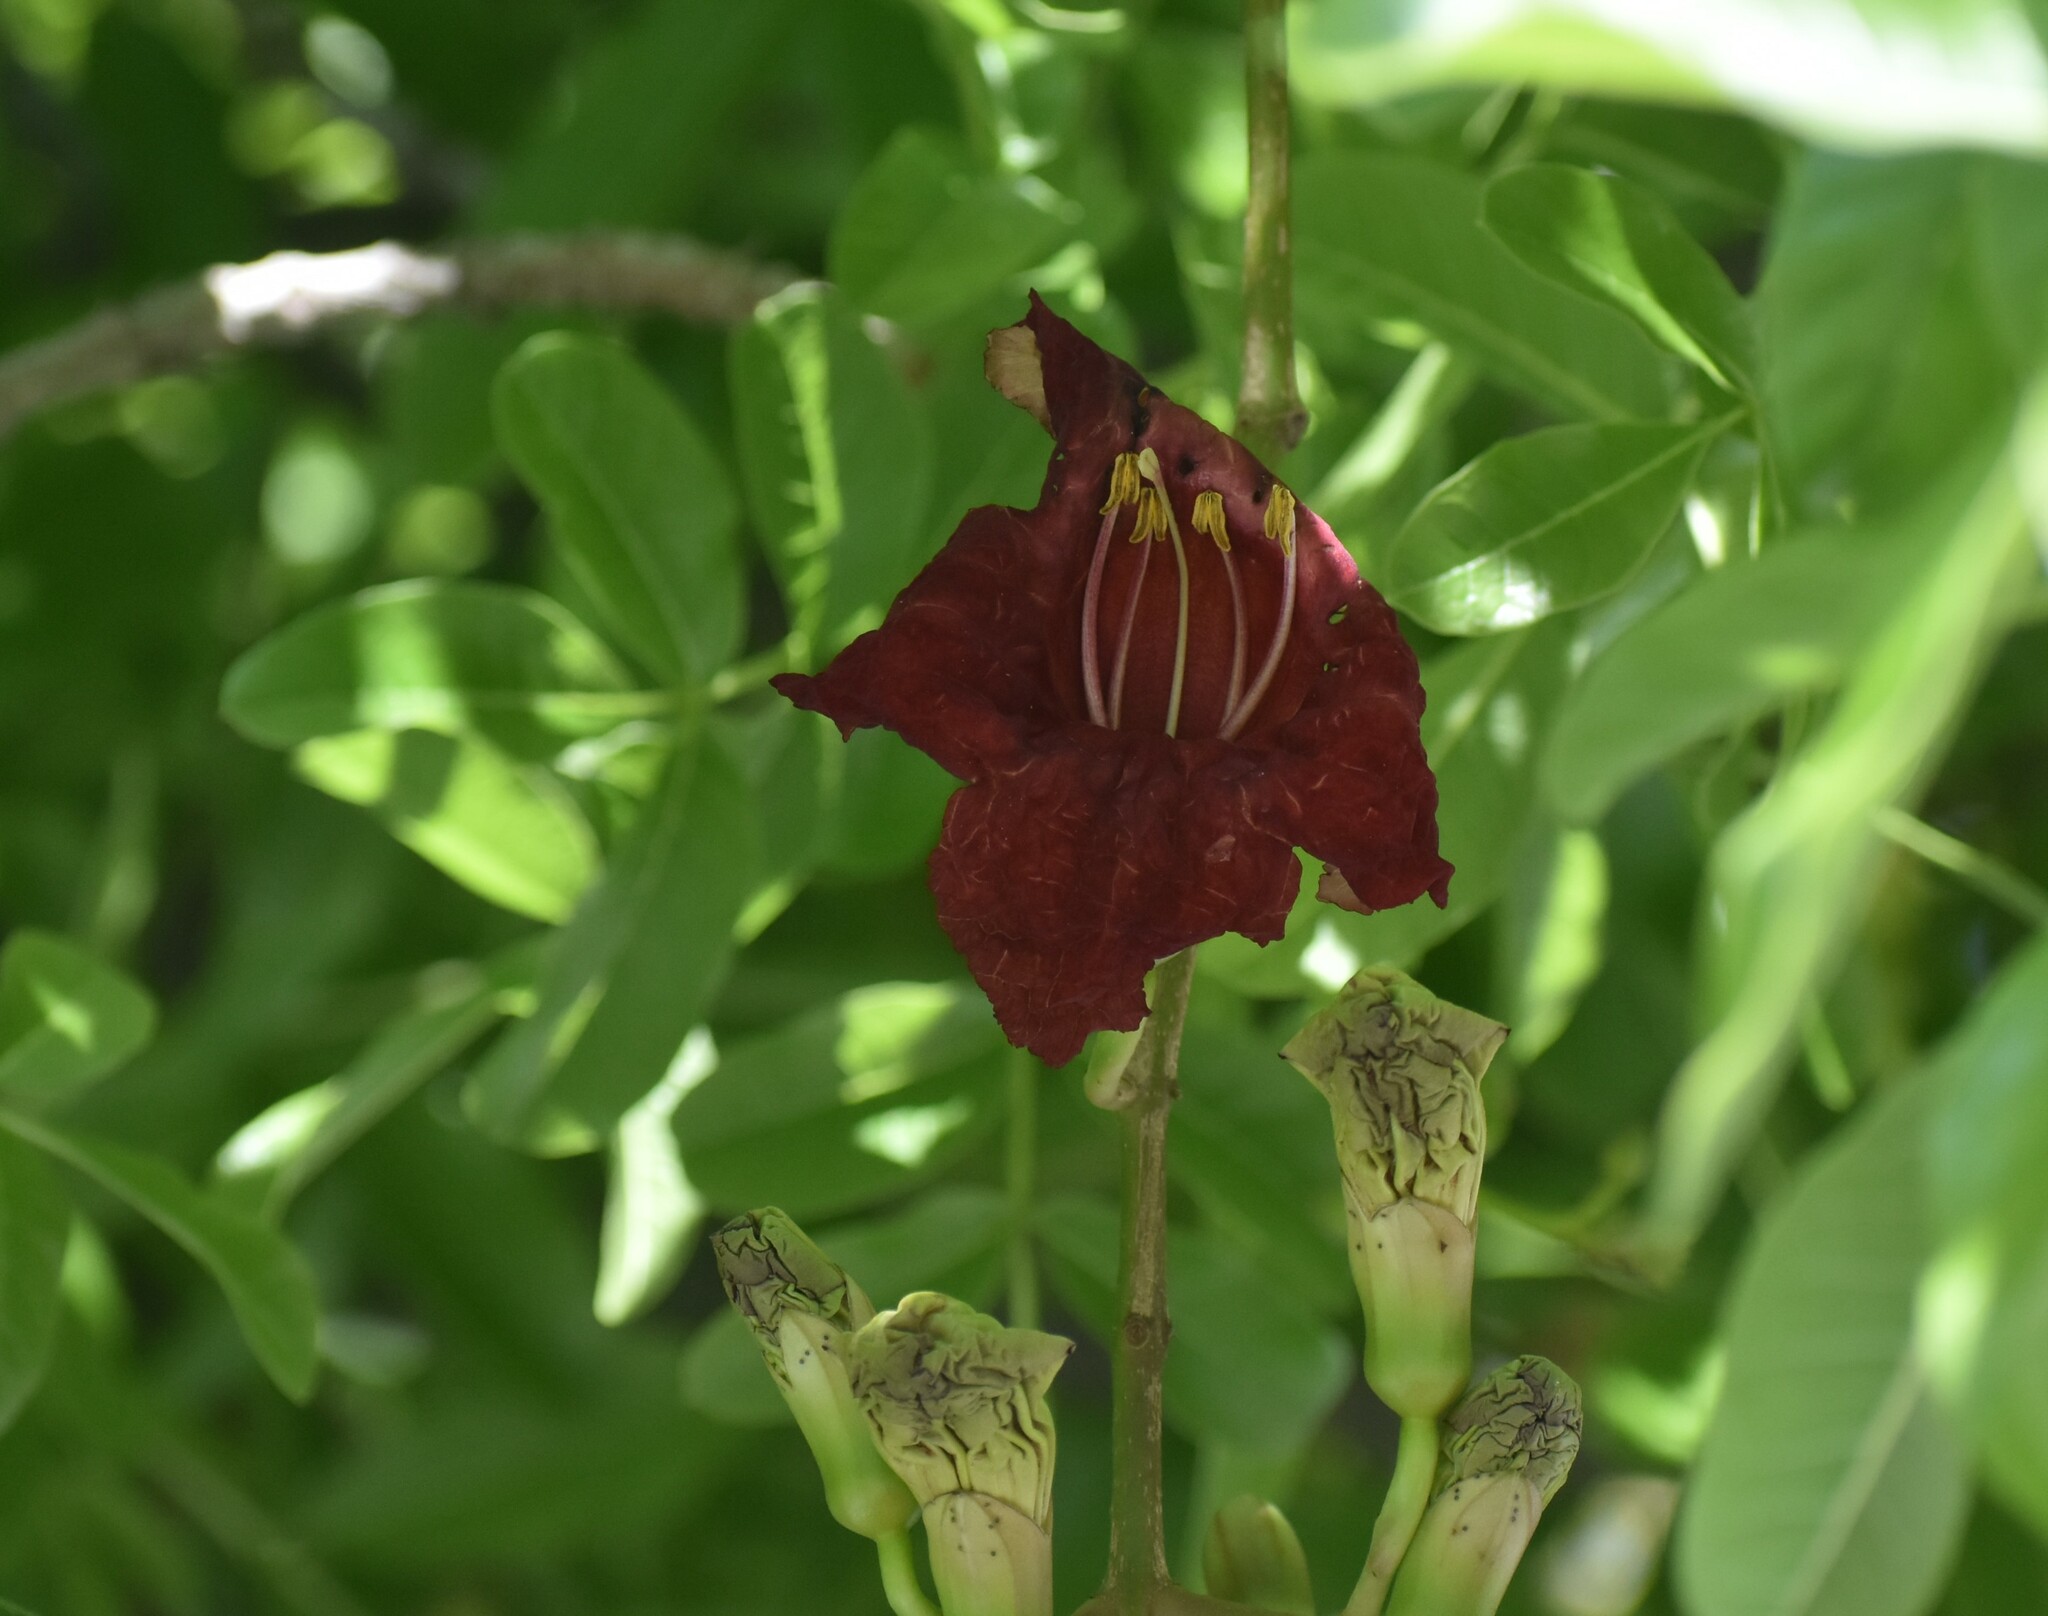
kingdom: Plantae
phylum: Tracheophyta
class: Magnoliopsida
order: Lamiales
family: Bignoniaceae
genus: Kigelia
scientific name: Kigelia africana
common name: Sausage tree
